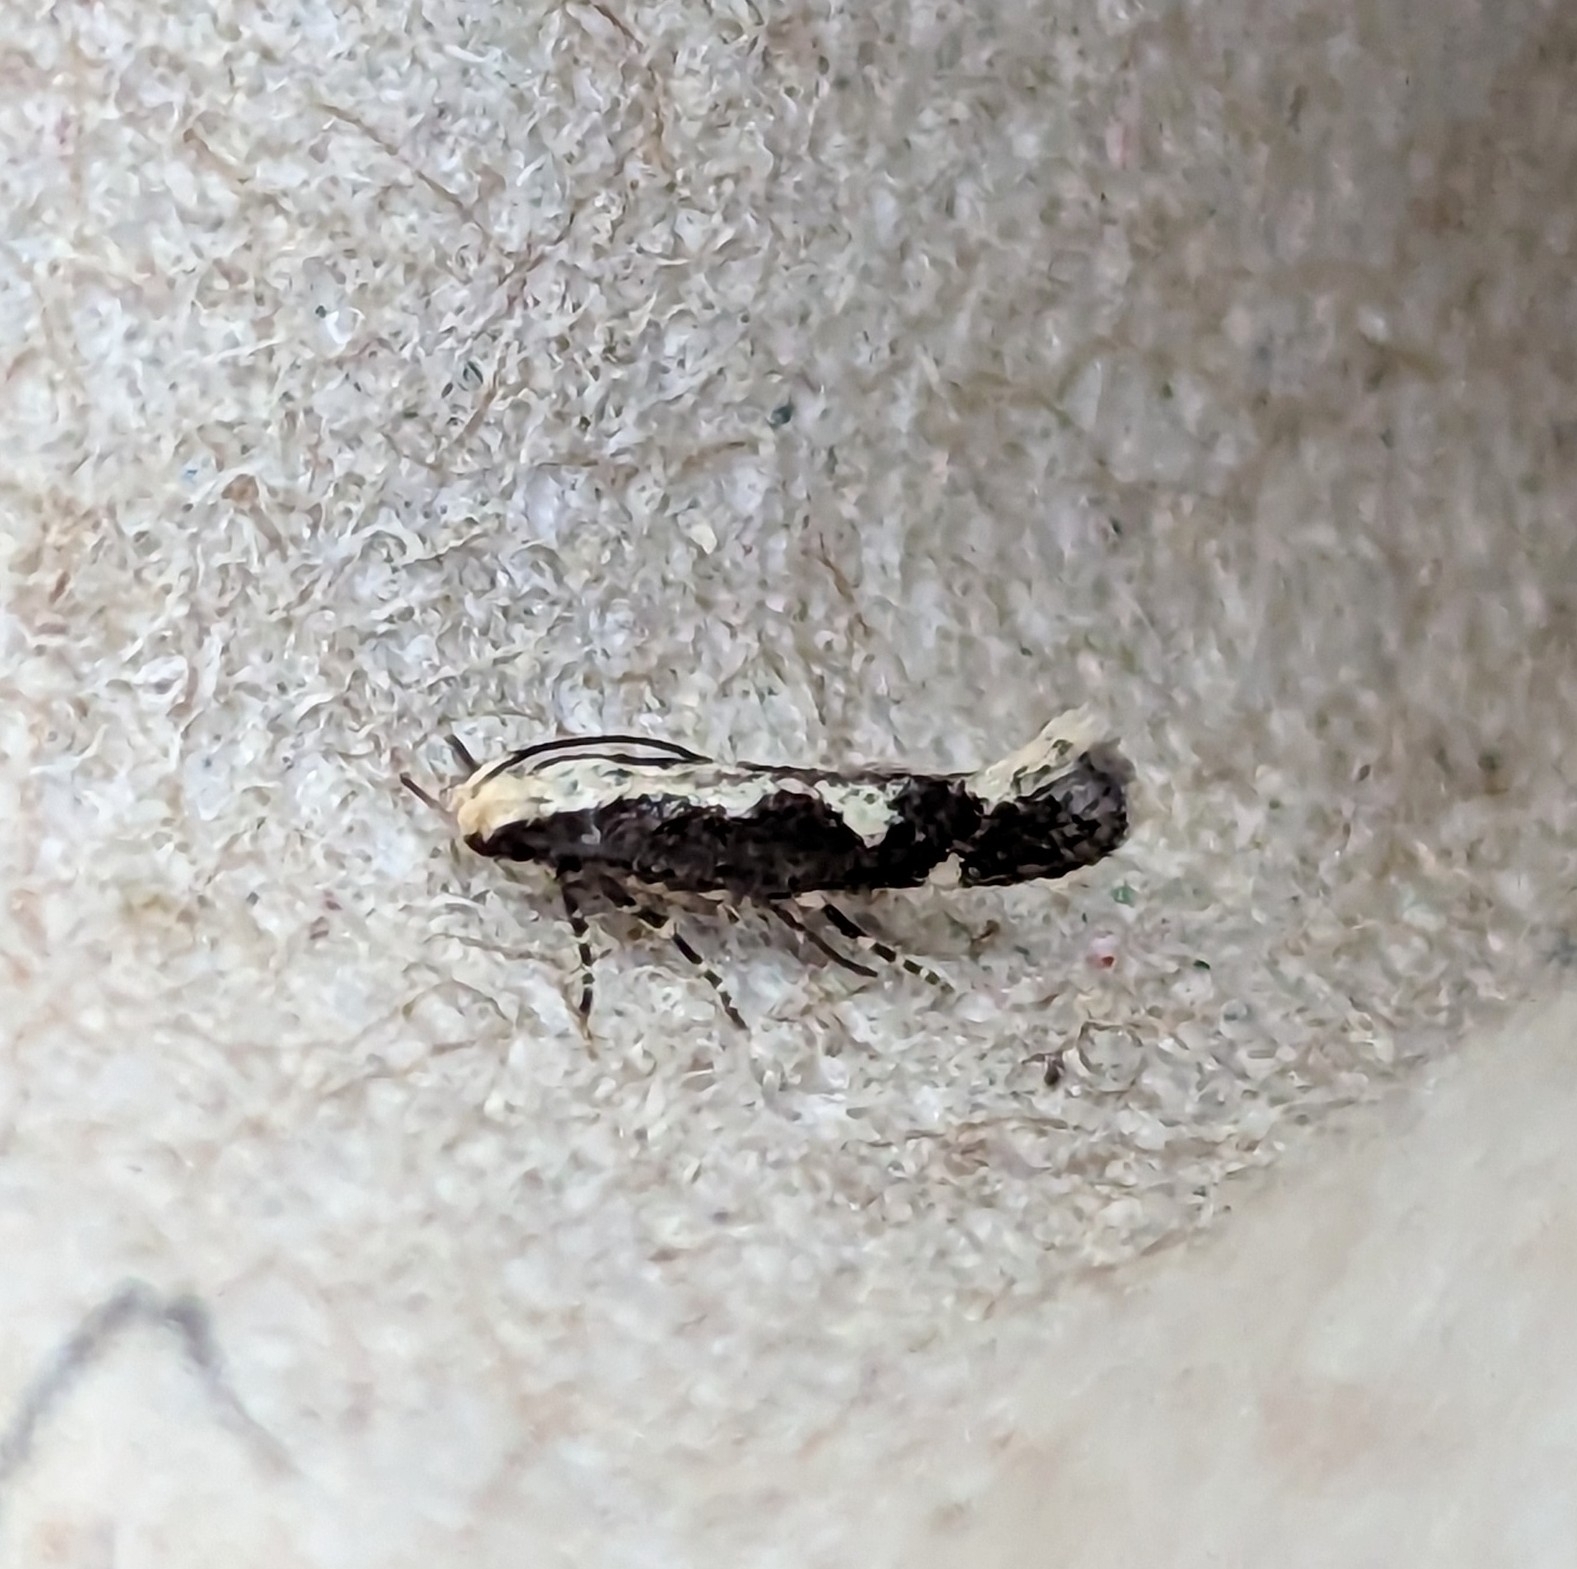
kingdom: Animalia
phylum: Arthropoda
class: Insecta
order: Lepidoptera
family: Gelechiidae
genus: Agnippe
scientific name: Agnippe prunifoliella
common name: Skunk twirler
